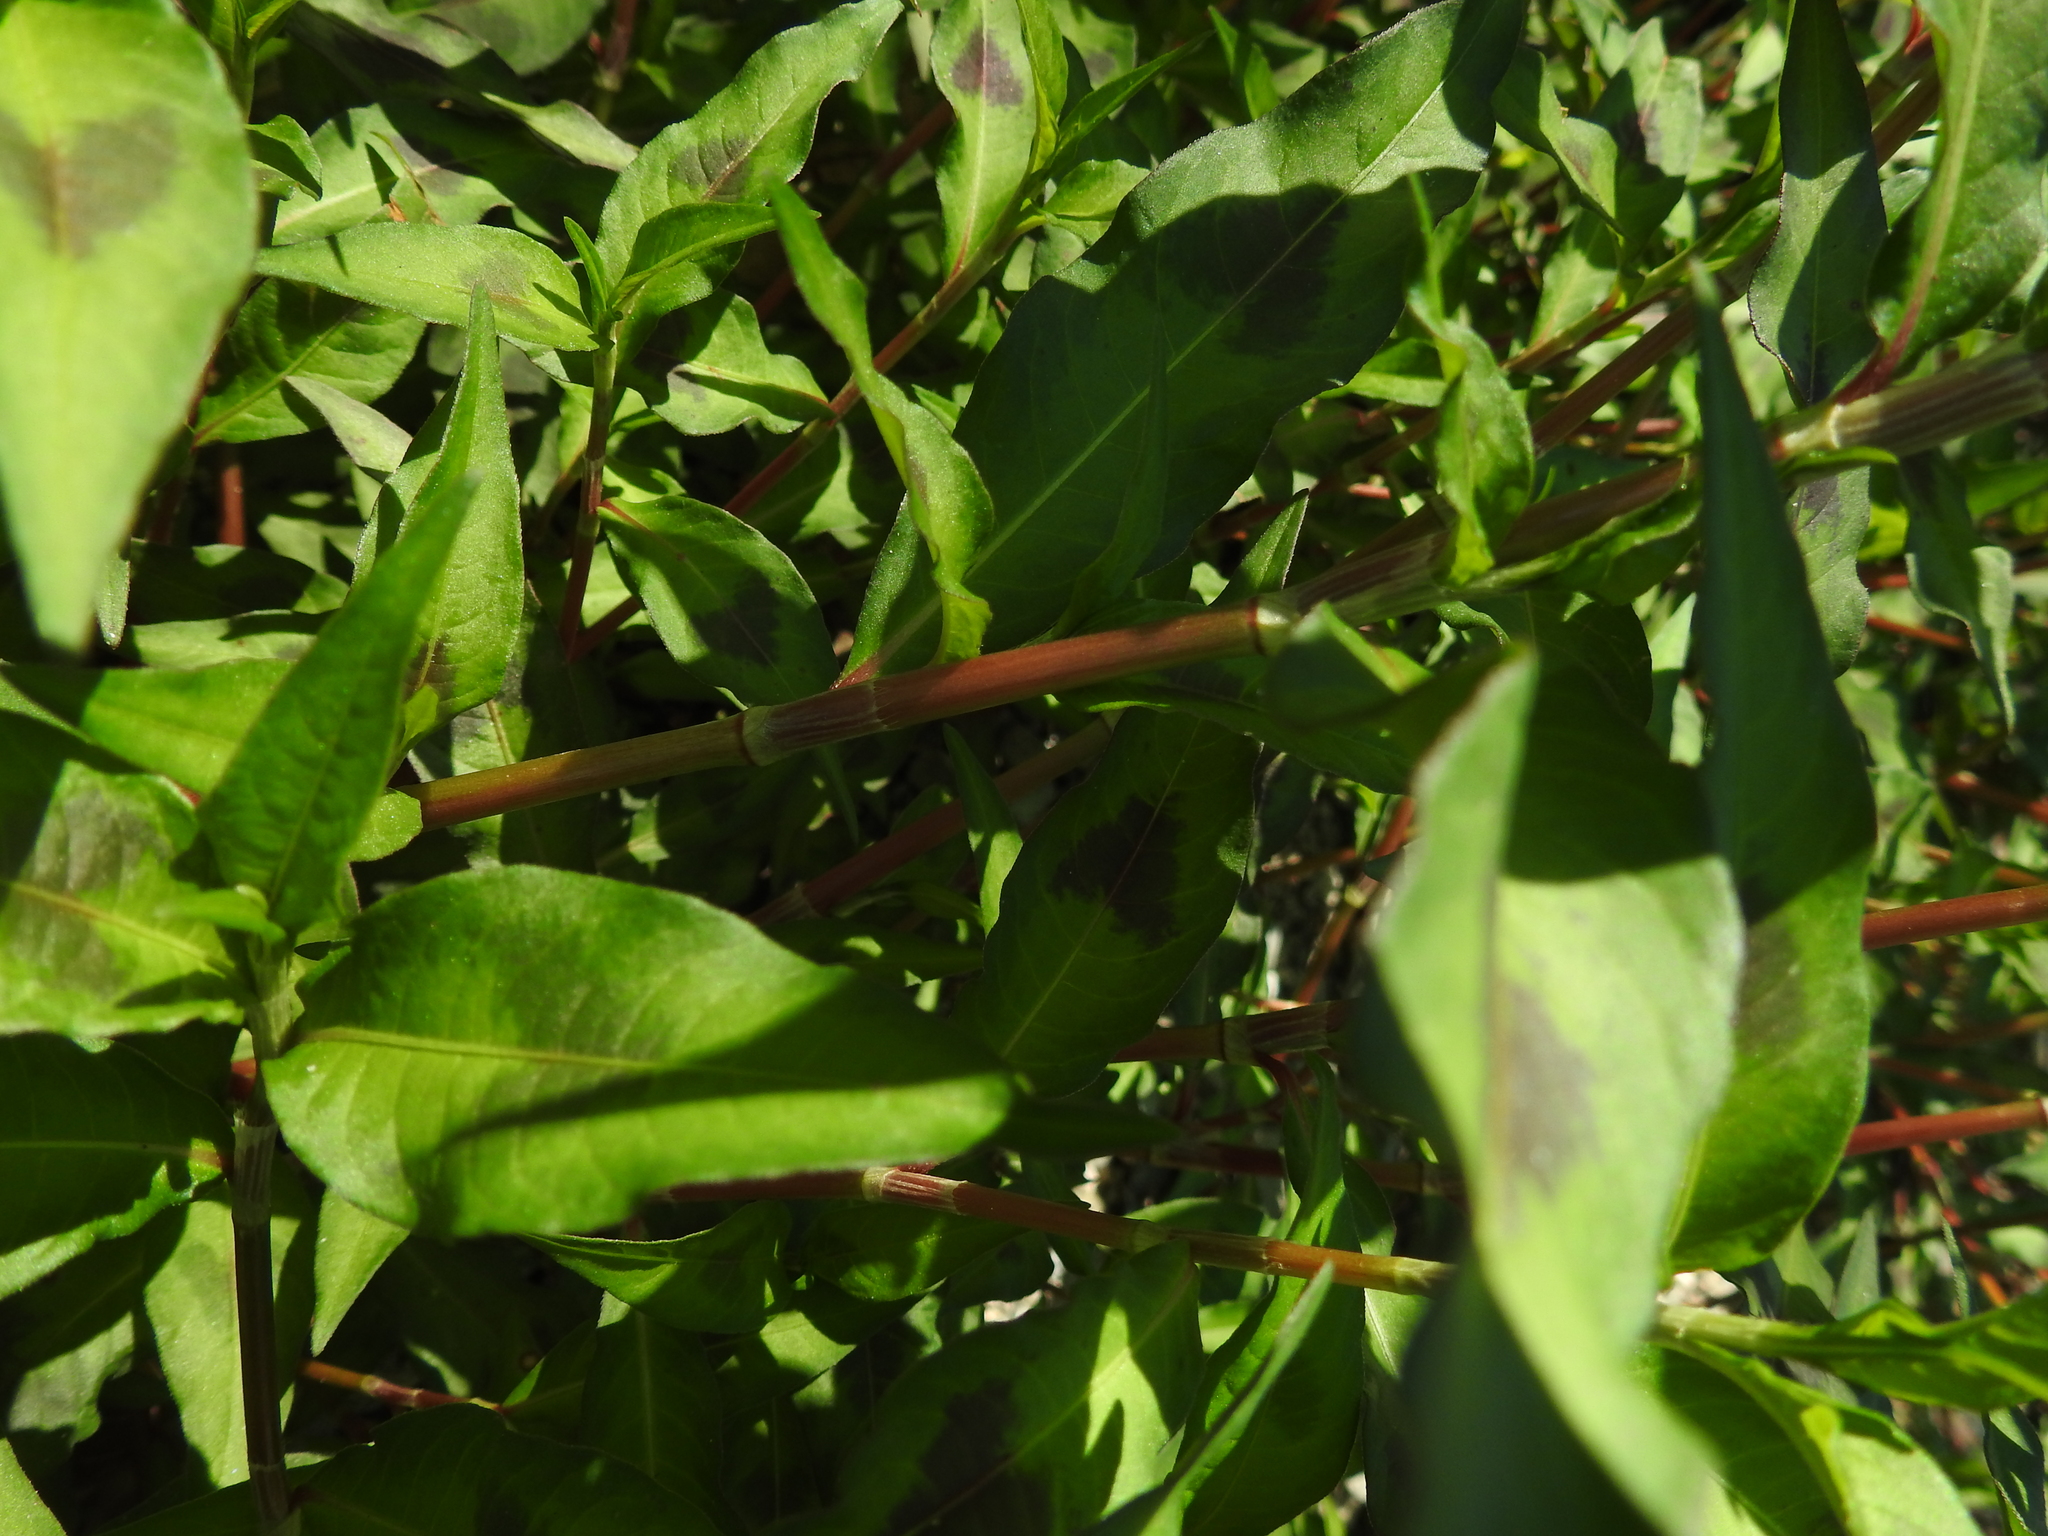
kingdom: Plantae
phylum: Tracheophyta
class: Magnoliopsida
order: Caryophyllales
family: Polygonaceae
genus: Persicaria
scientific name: Persicaria maculosa
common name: Redshank
